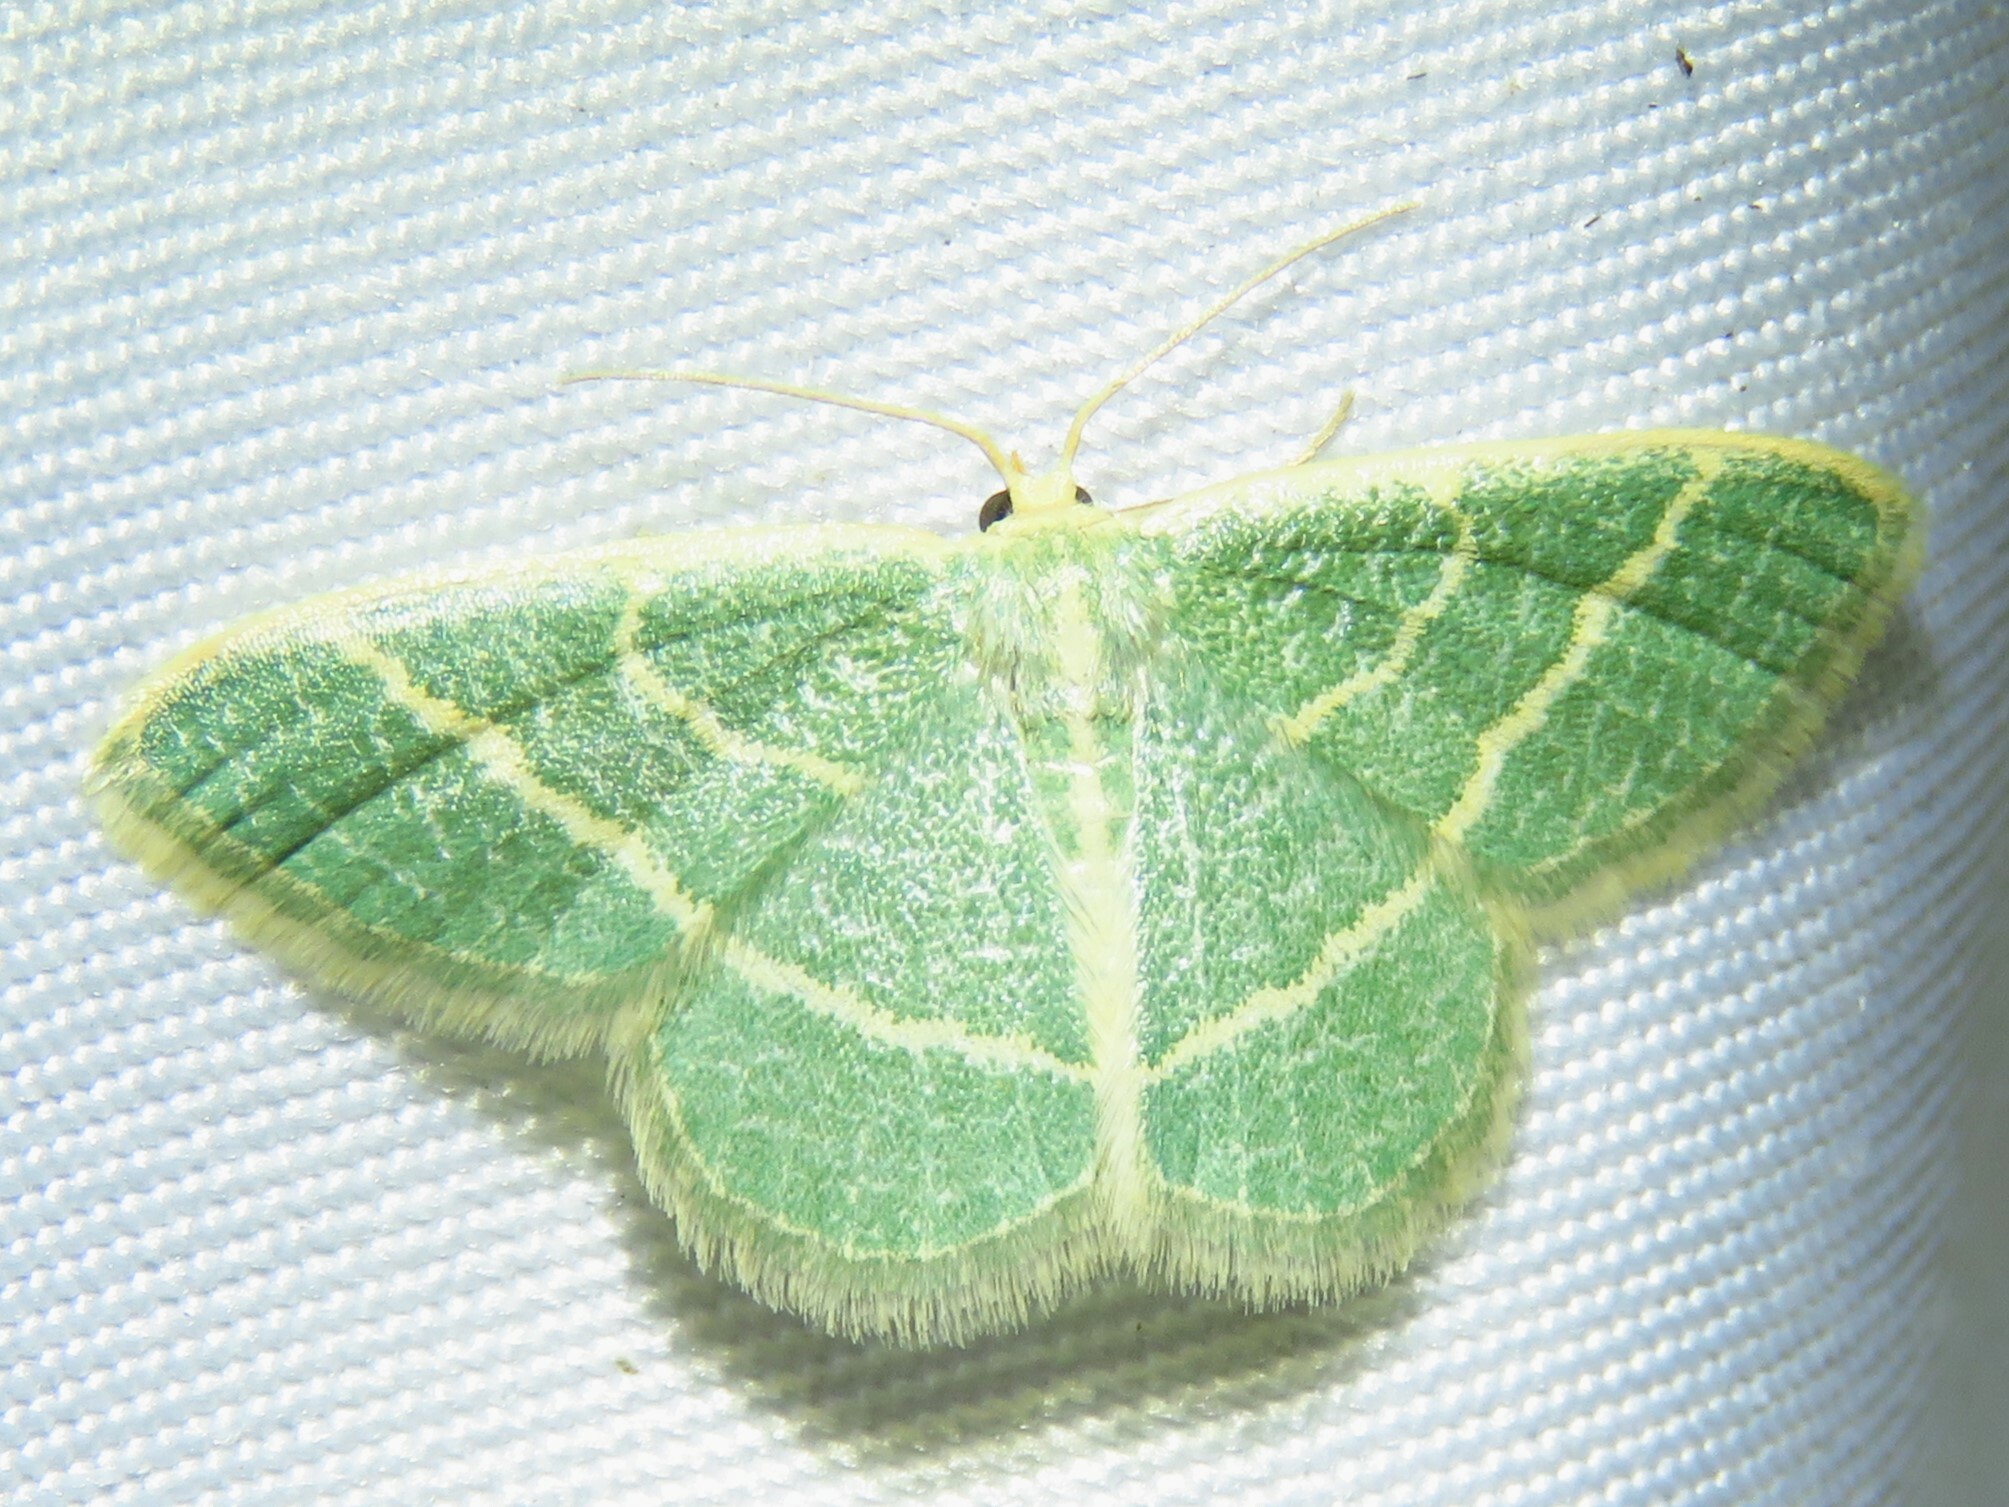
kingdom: Animalia
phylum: Arthropoda
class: Insecta
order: Lepidoptera
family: Geometridae
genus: Chlorochlamys
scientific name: Chlorochlamys chloroleucaria
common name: Blackberry looper
